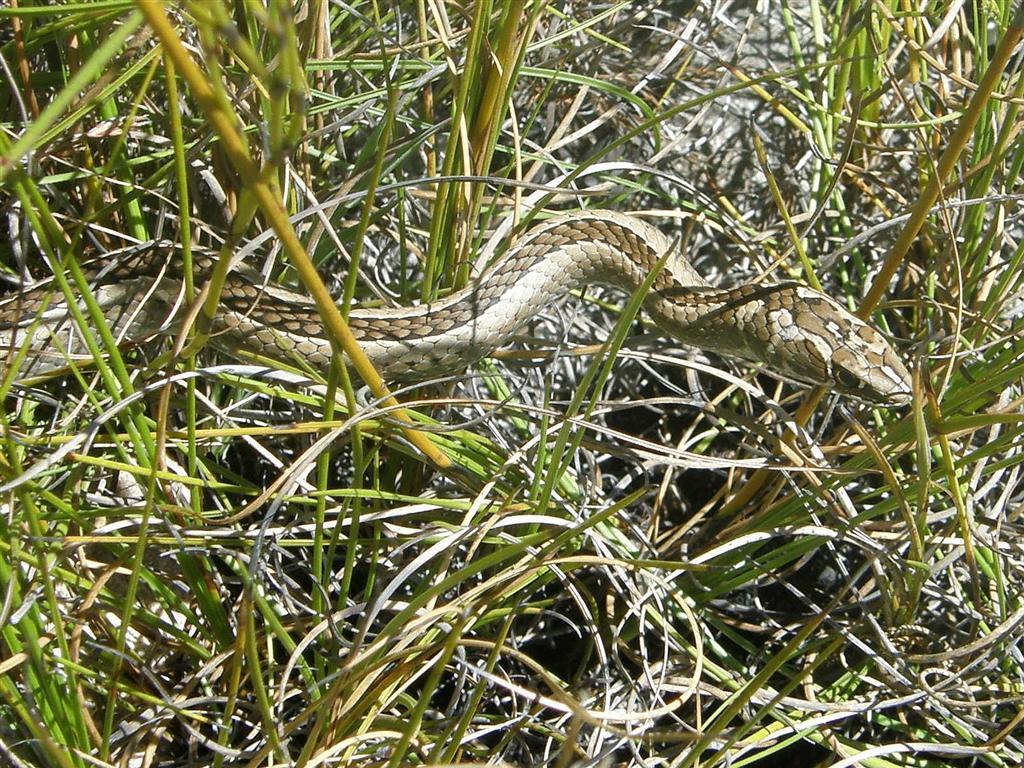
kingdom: Animalia
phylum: Chordata
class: Squamata
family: Psammophiidae
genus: Psammophis
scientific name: Psammophis crucifer
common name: Cross-marked grass snake
